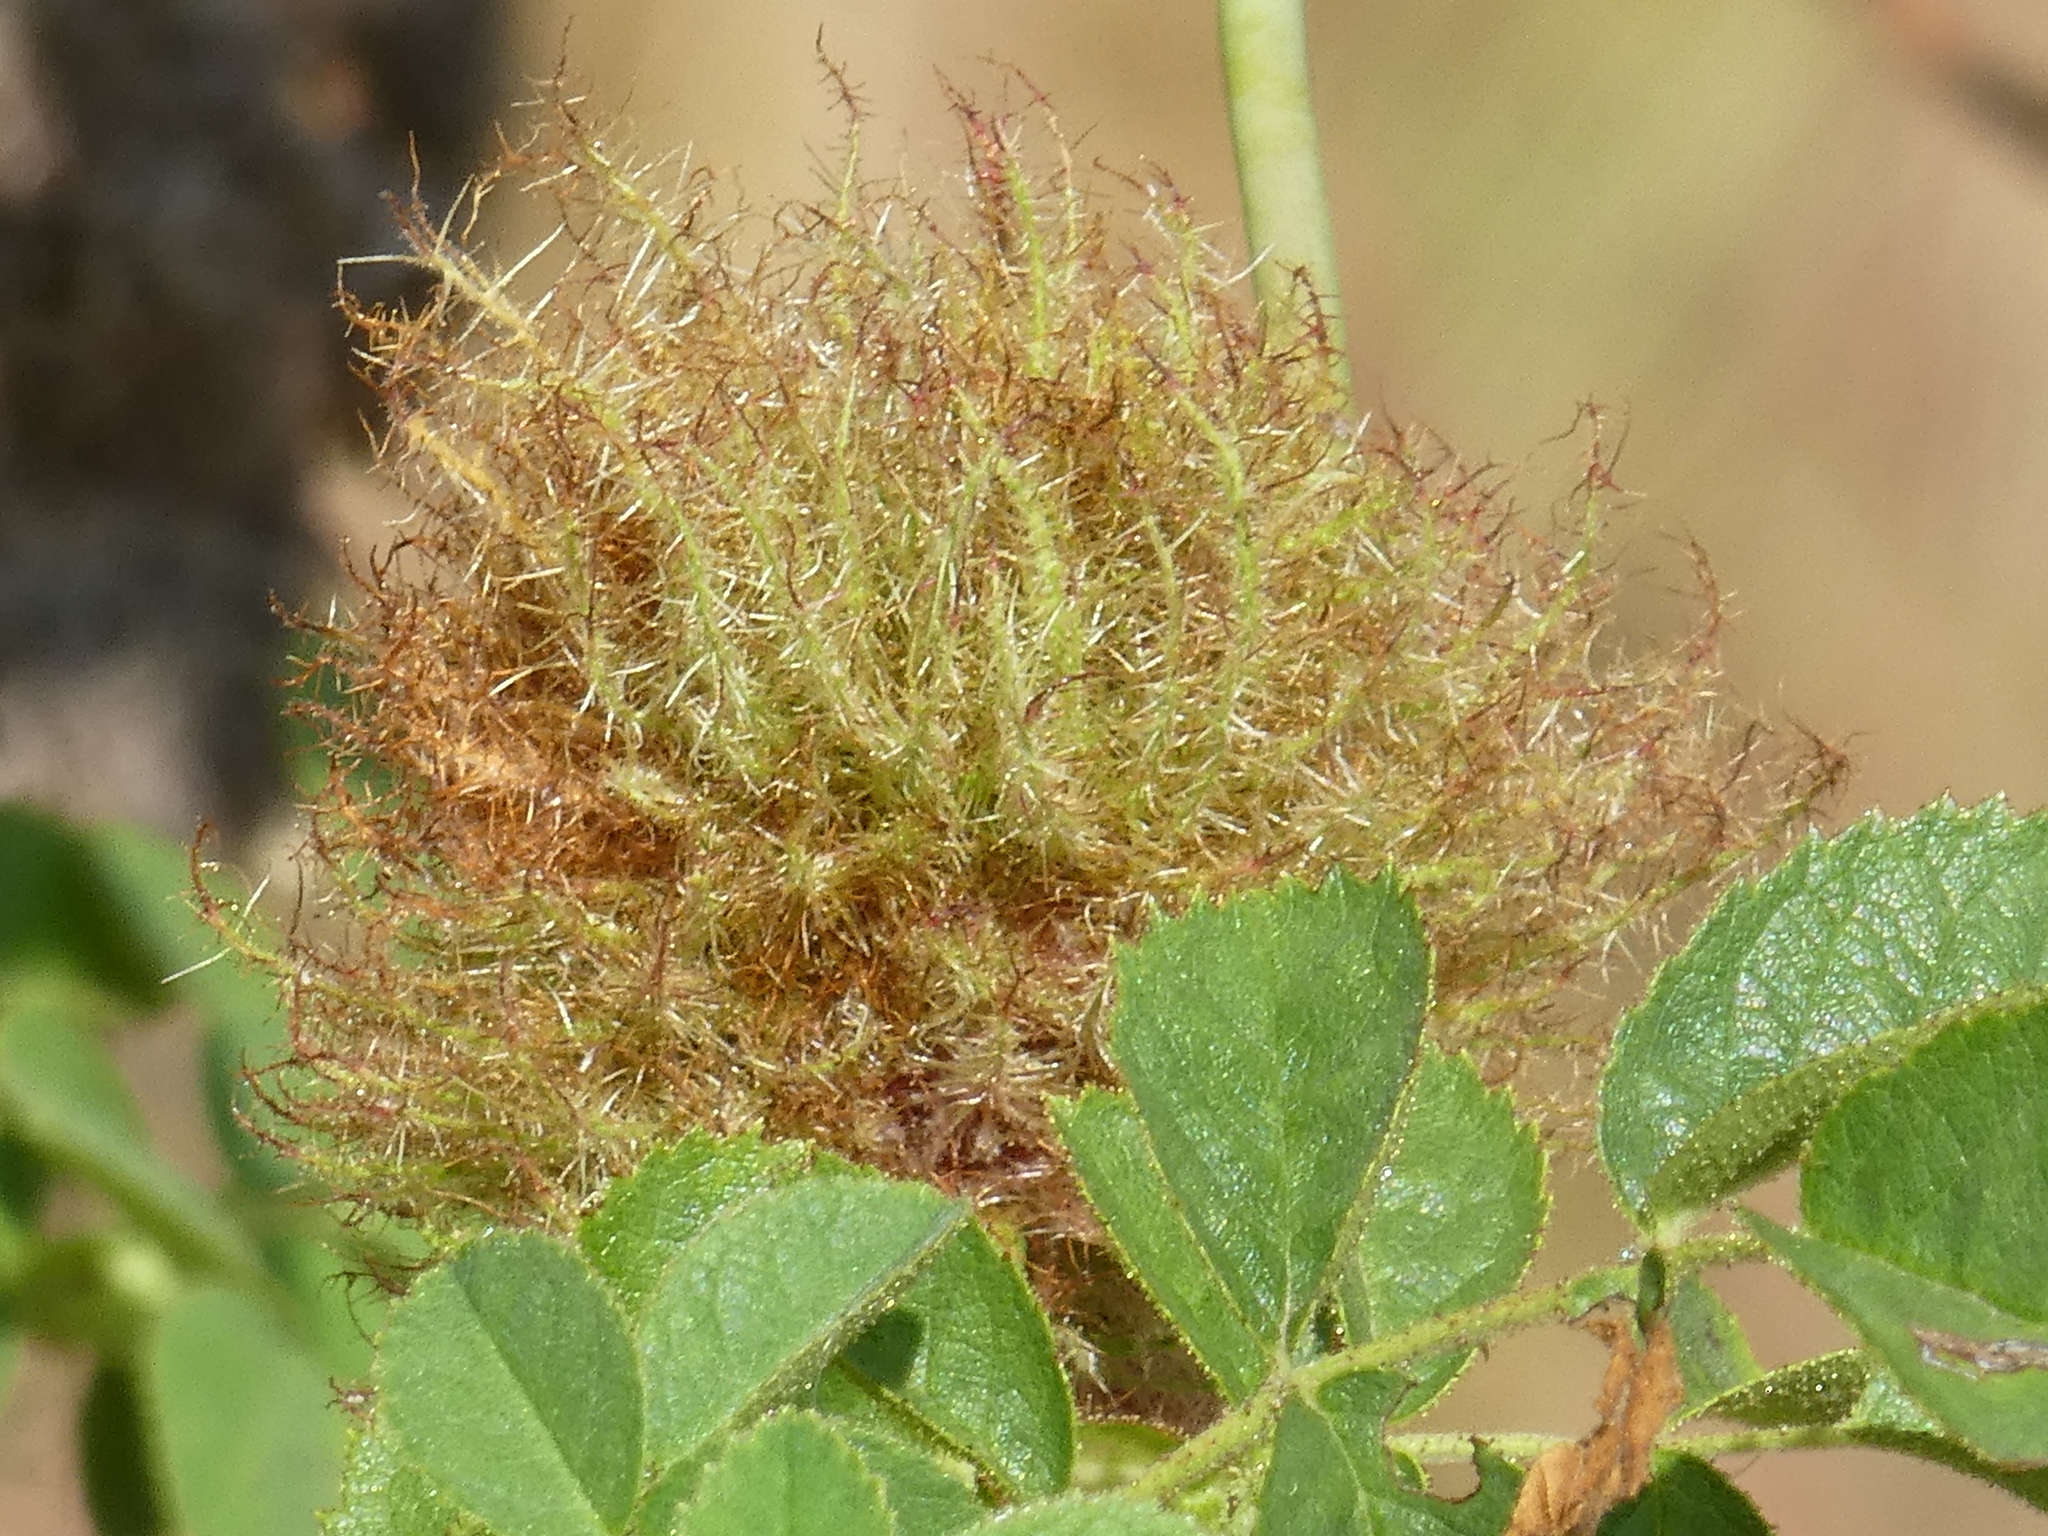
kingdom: Animalia
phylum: Arthropoda
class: Insecta
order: Hymenoptera
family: Cynipidae
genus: Diplolepis
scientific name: Diplolepis rosae
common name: Bedeguar gall
